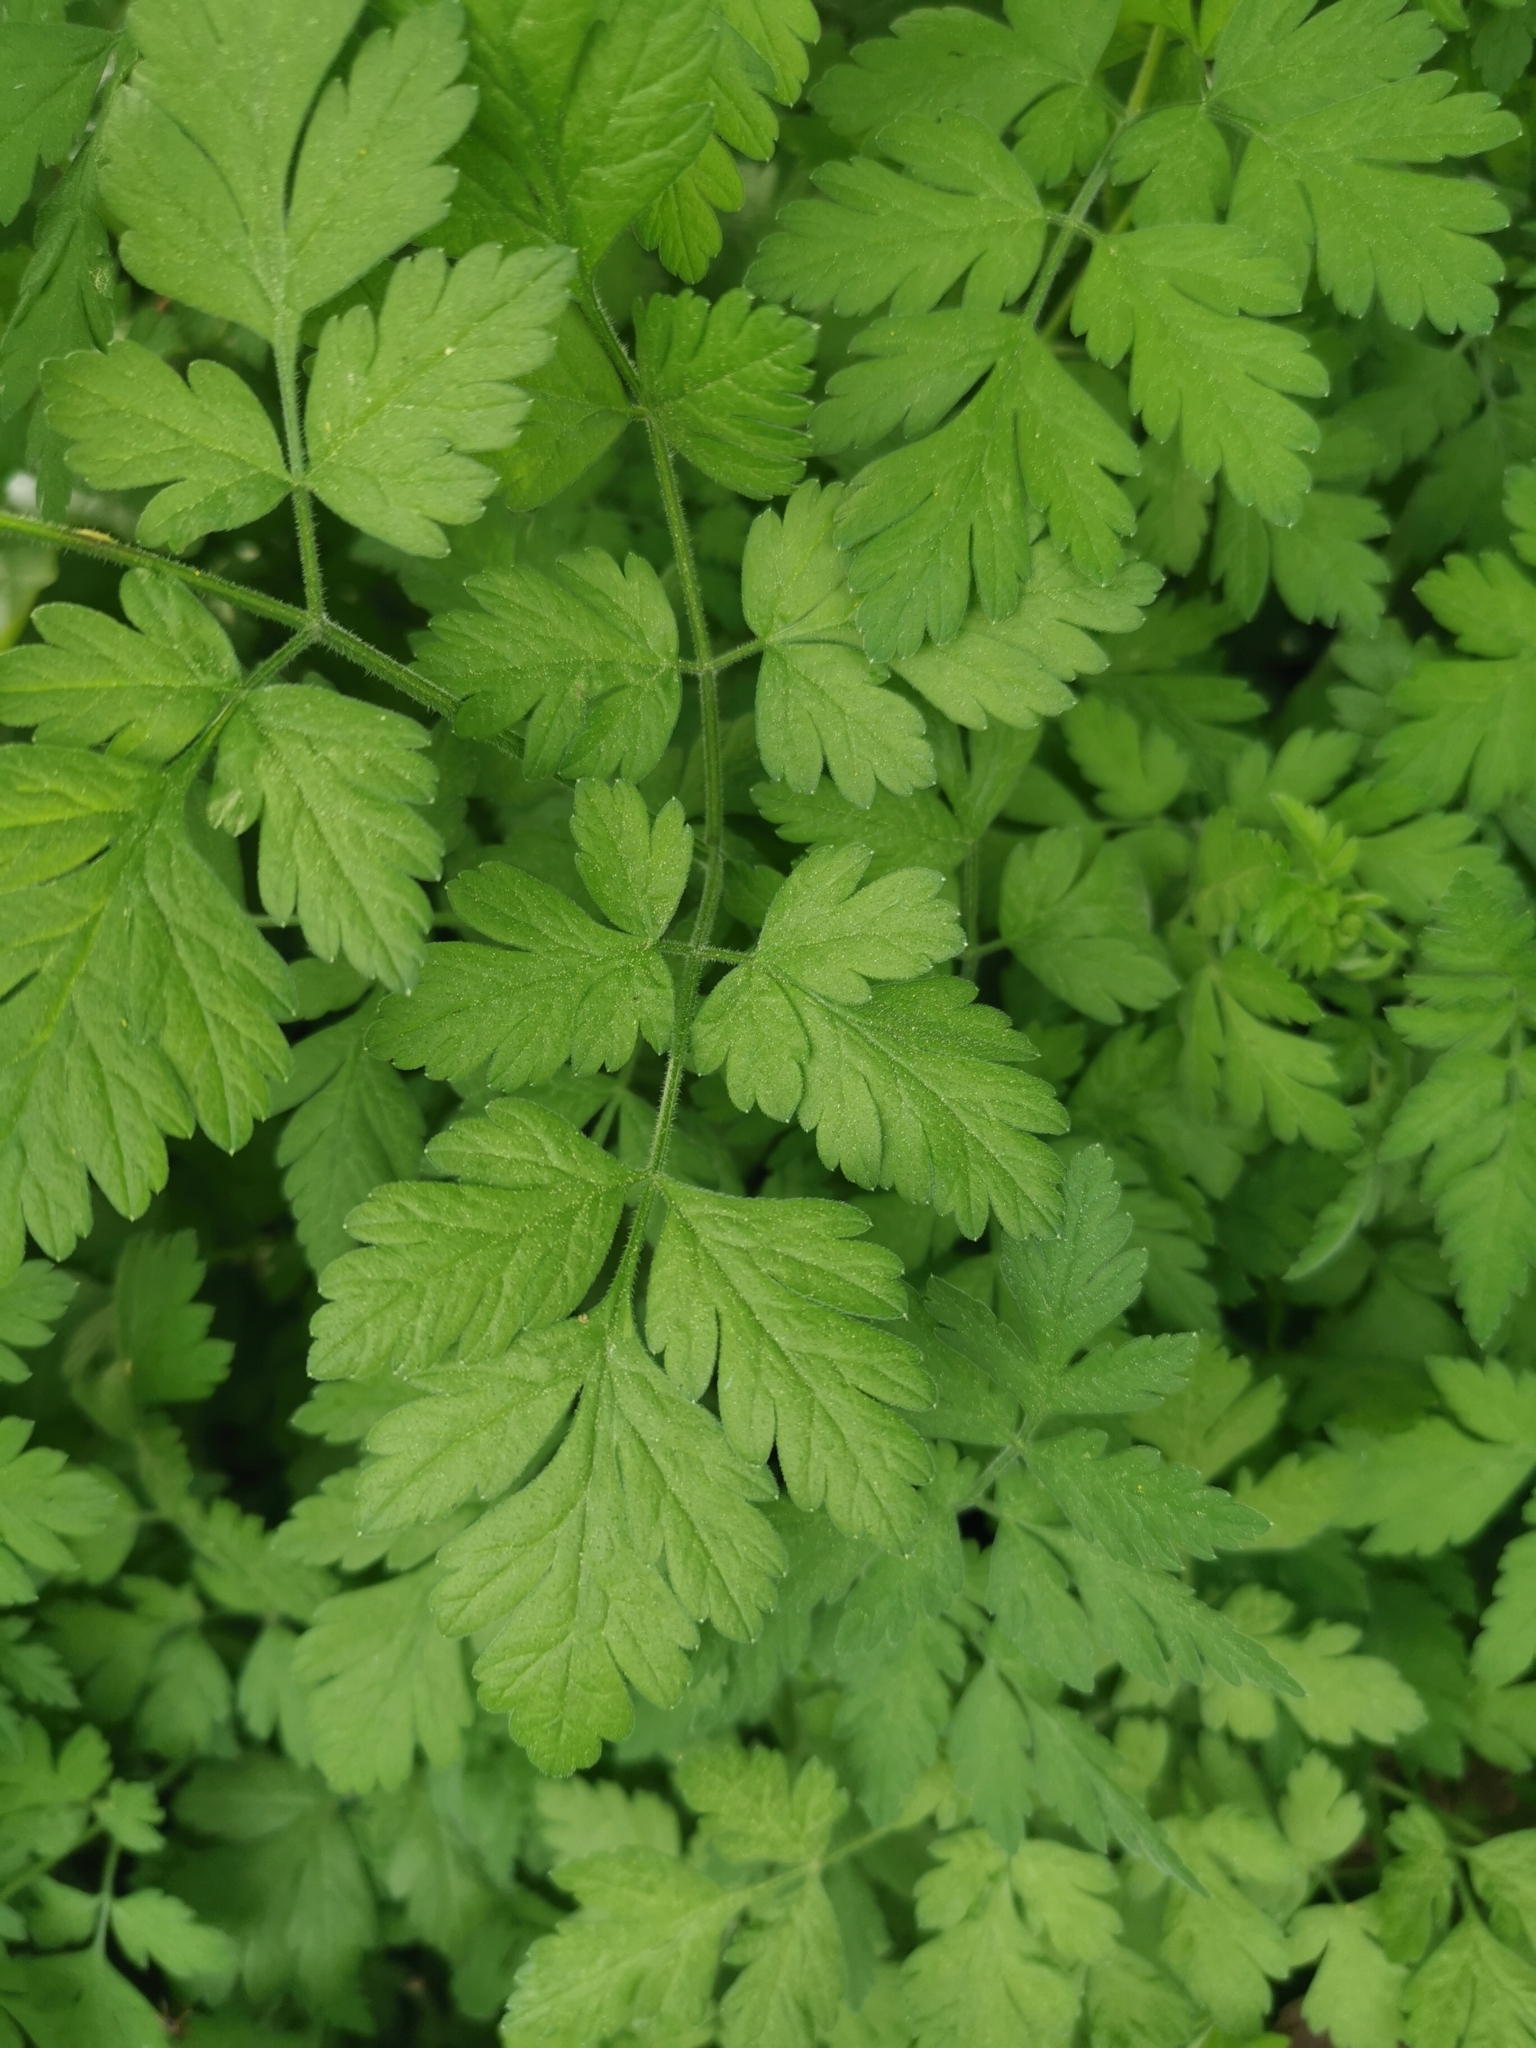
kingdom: Plantae
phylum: Tracheophyta
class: Magnoliopsida
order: Apiales
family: Apiaceae
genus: Chaerophyllum
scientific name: Chaerophyllum temulum
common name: Rough chervil
